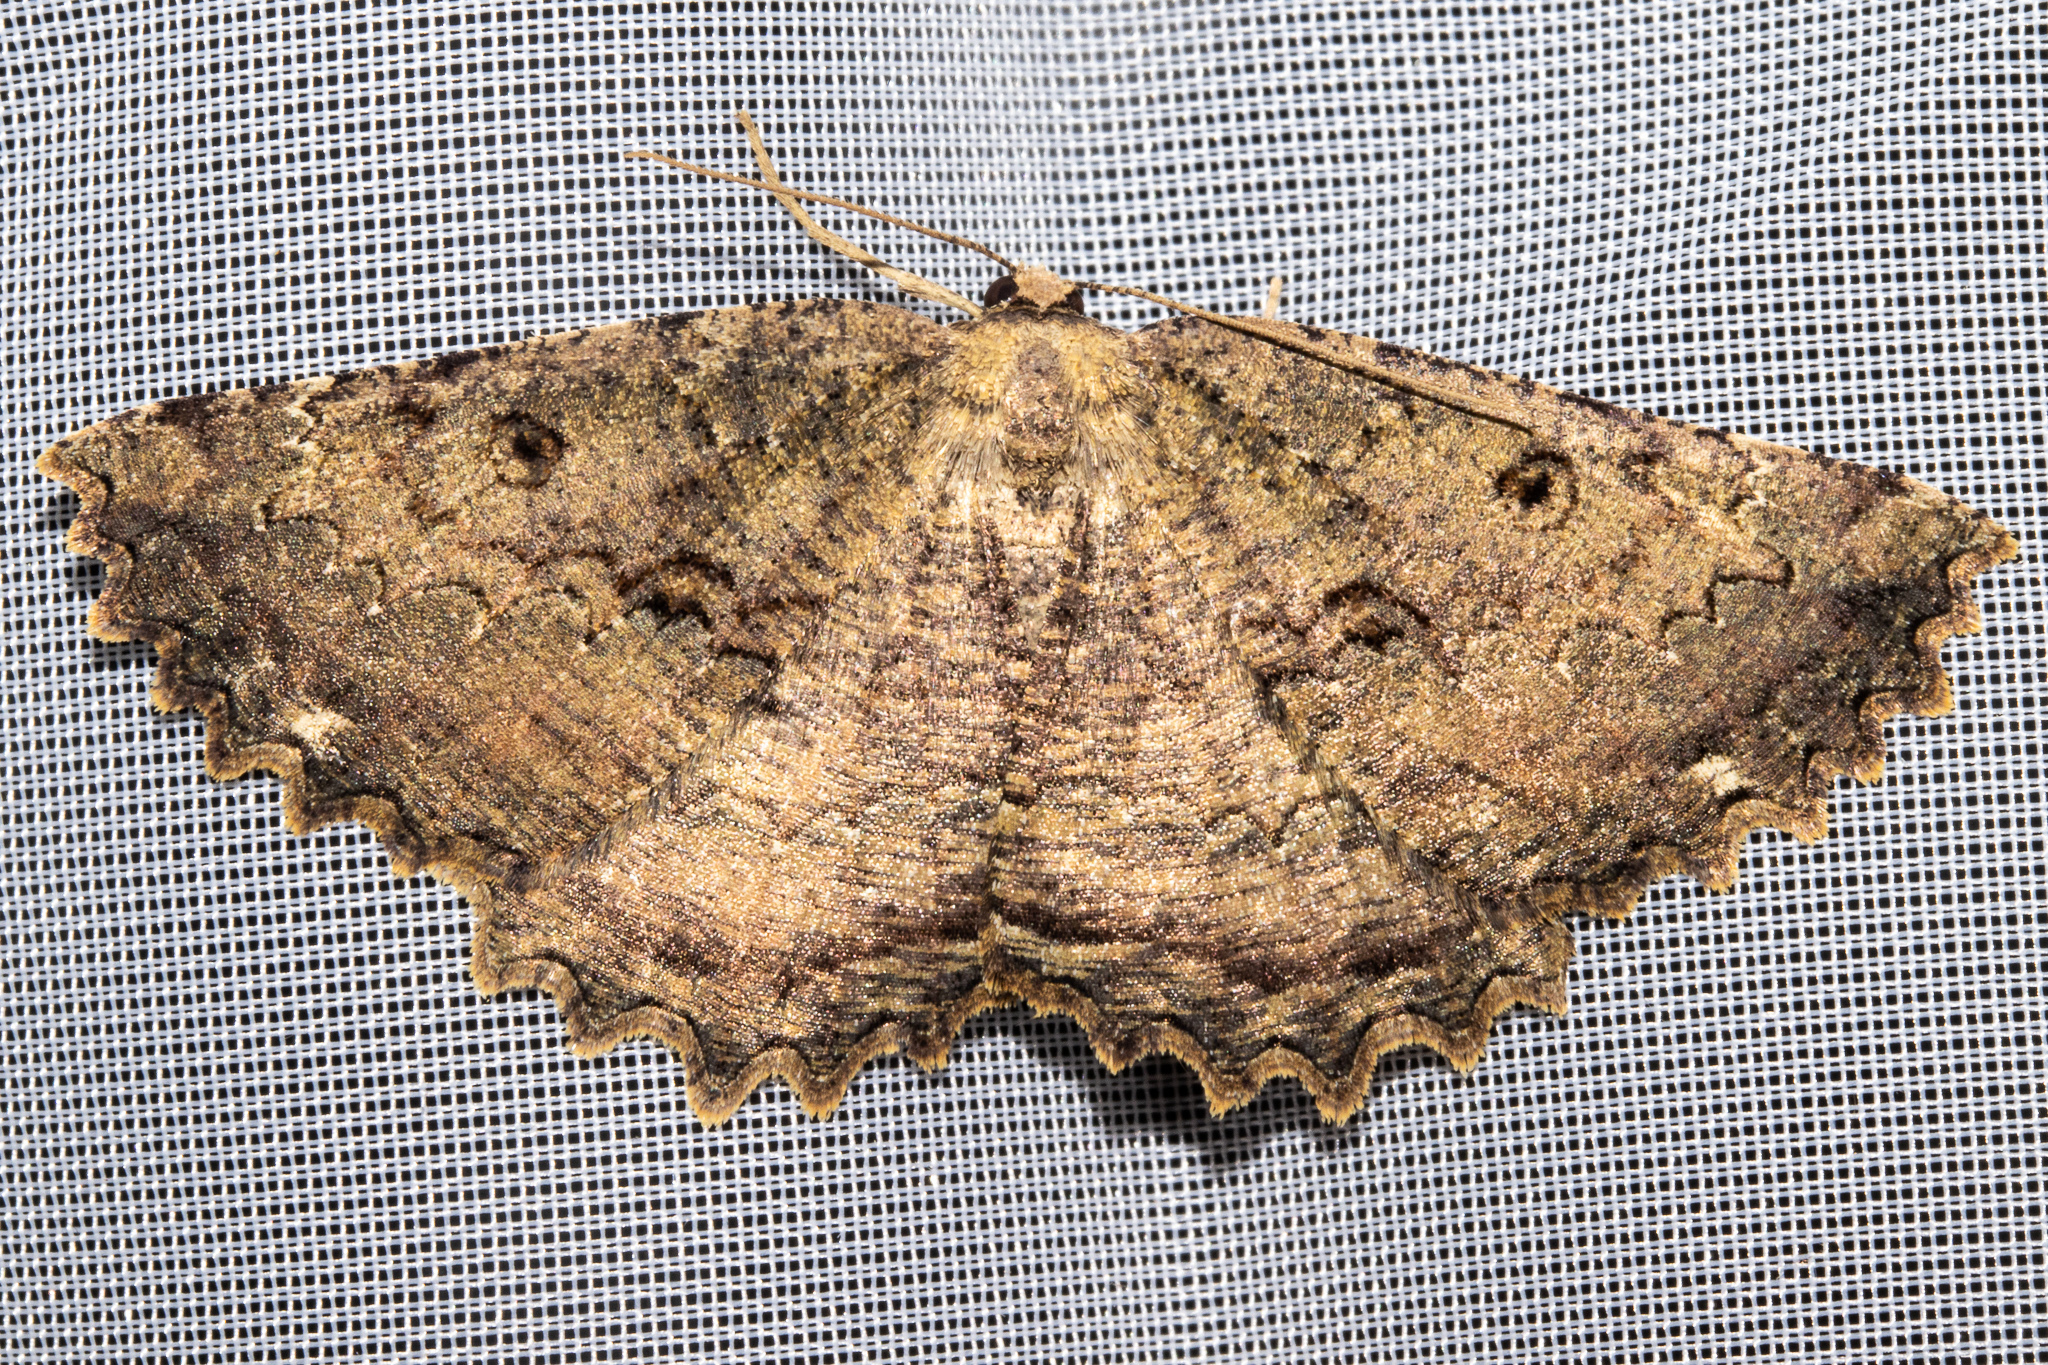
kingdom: Animalia
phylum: Arthropoda
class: Insecta
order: Lepidoptera
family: Geometridae
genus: Gellonia
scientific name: Gellonia pannularia
